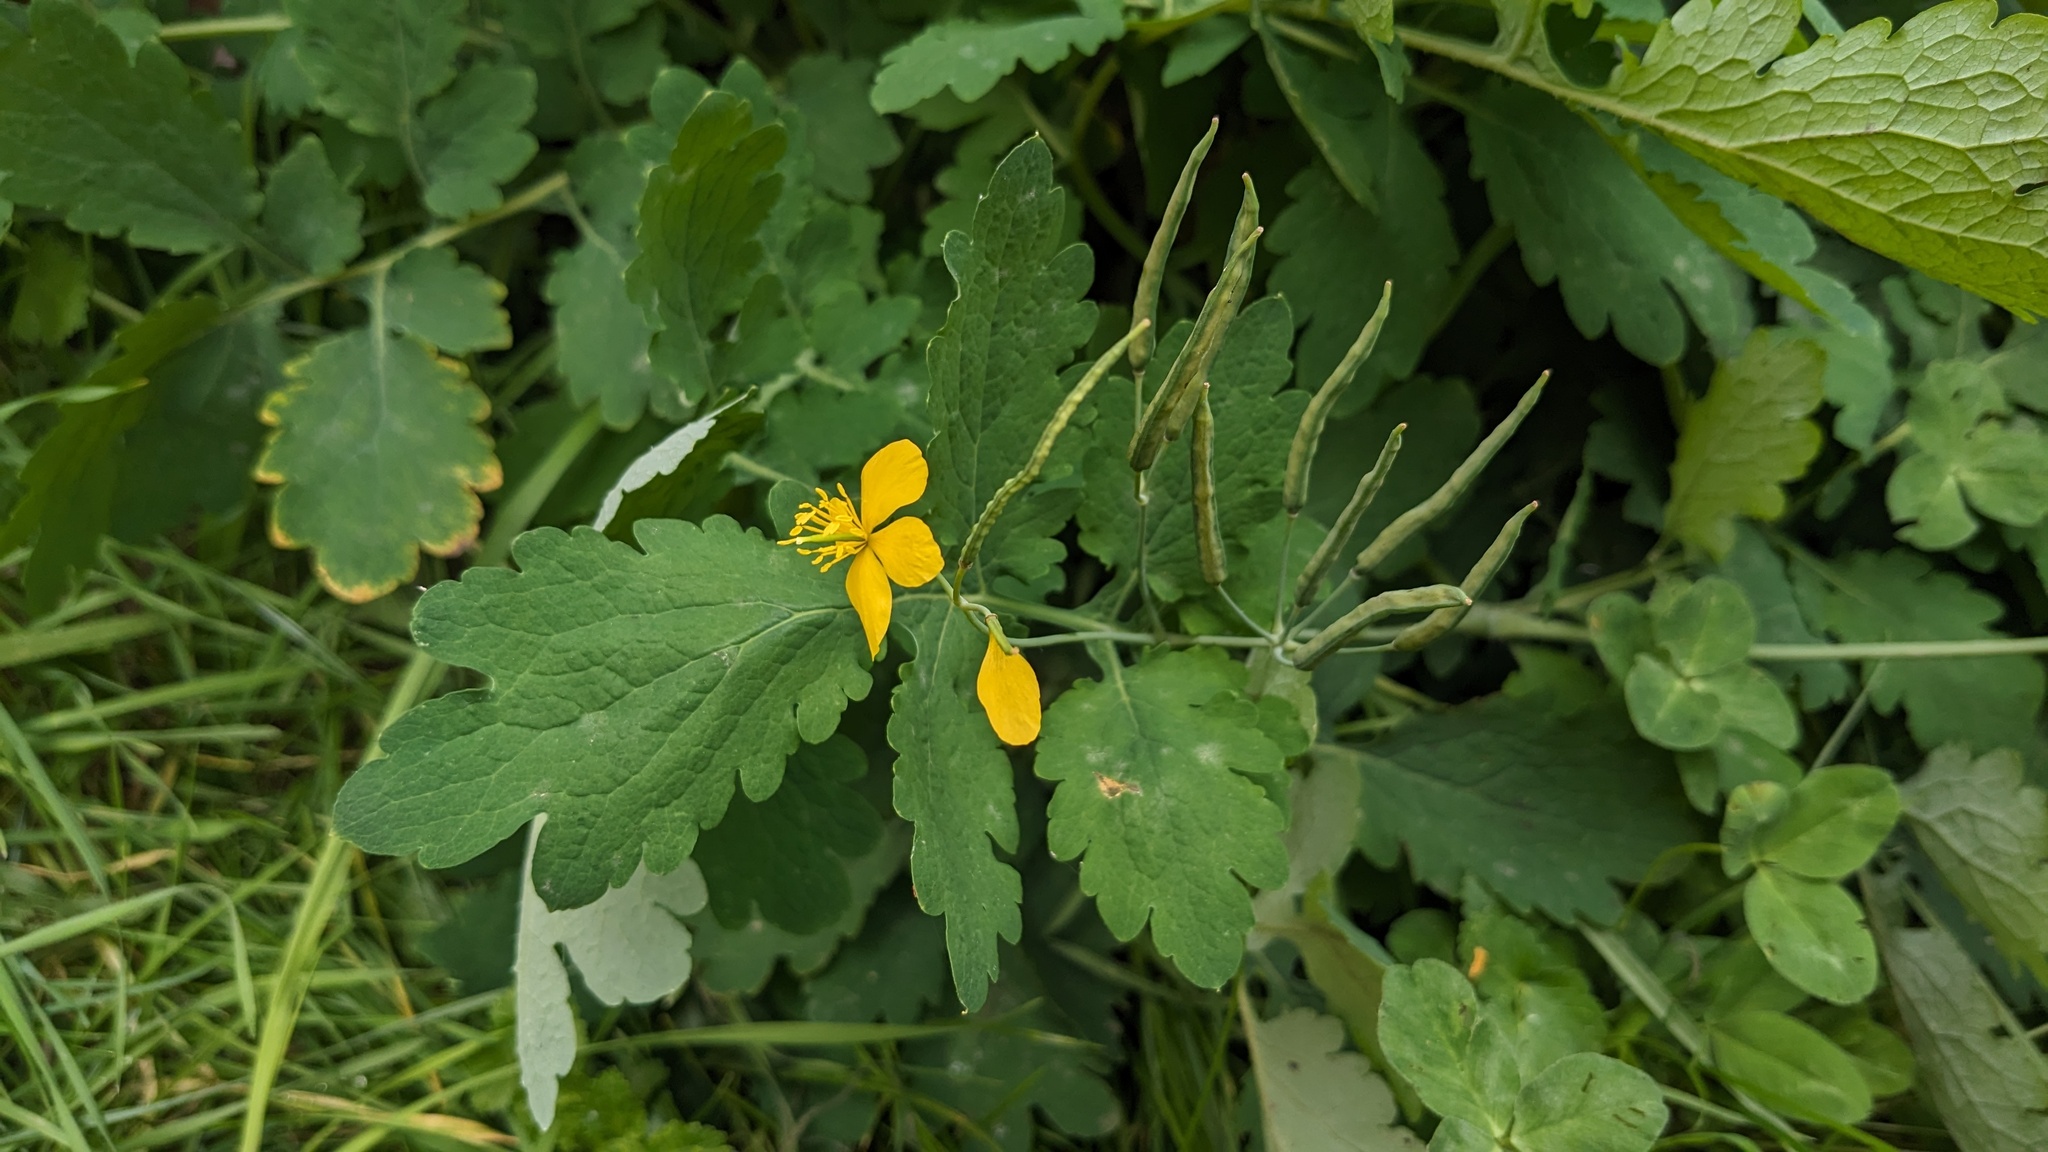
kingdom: Plantae
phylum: Tracheophyta
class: Magnoliopsida
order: Ranunculales
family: Papaveraceae
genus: Chelidonium
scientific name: Chelidonium majus
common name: Greater celandine
